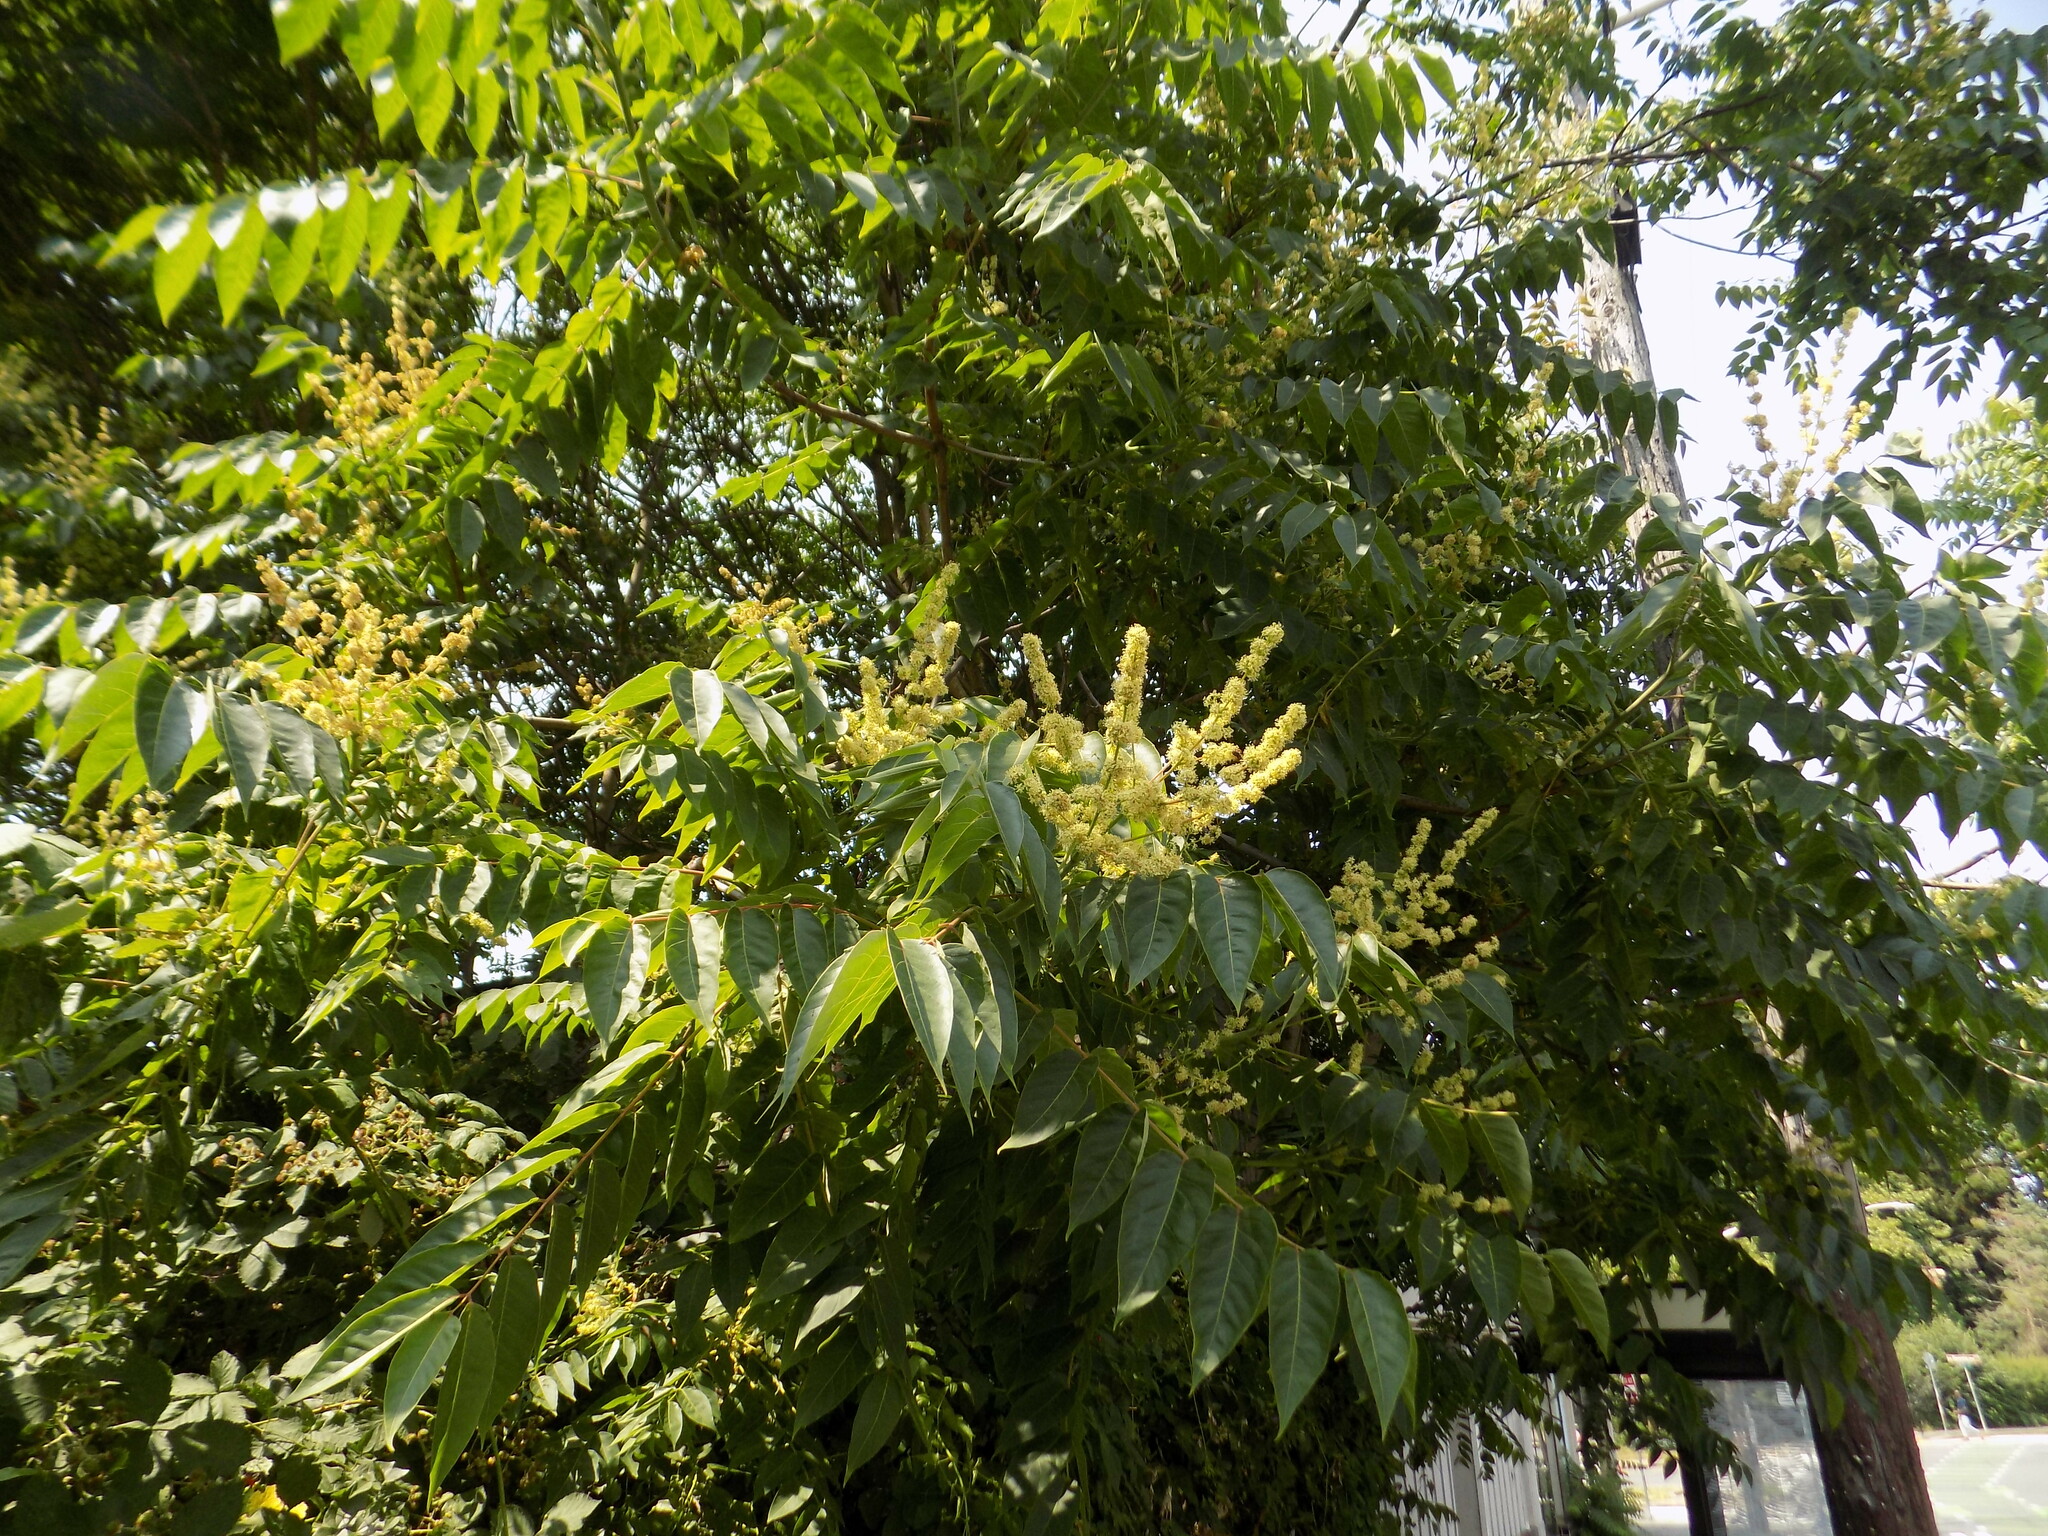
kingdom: Plantae
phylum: Tracheophyta
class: Magnoliopsida
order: Sapindales
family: Simaroubaceae
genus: Ailanthus
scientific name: Ailanthus altissima
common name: Tree-of-heaven
